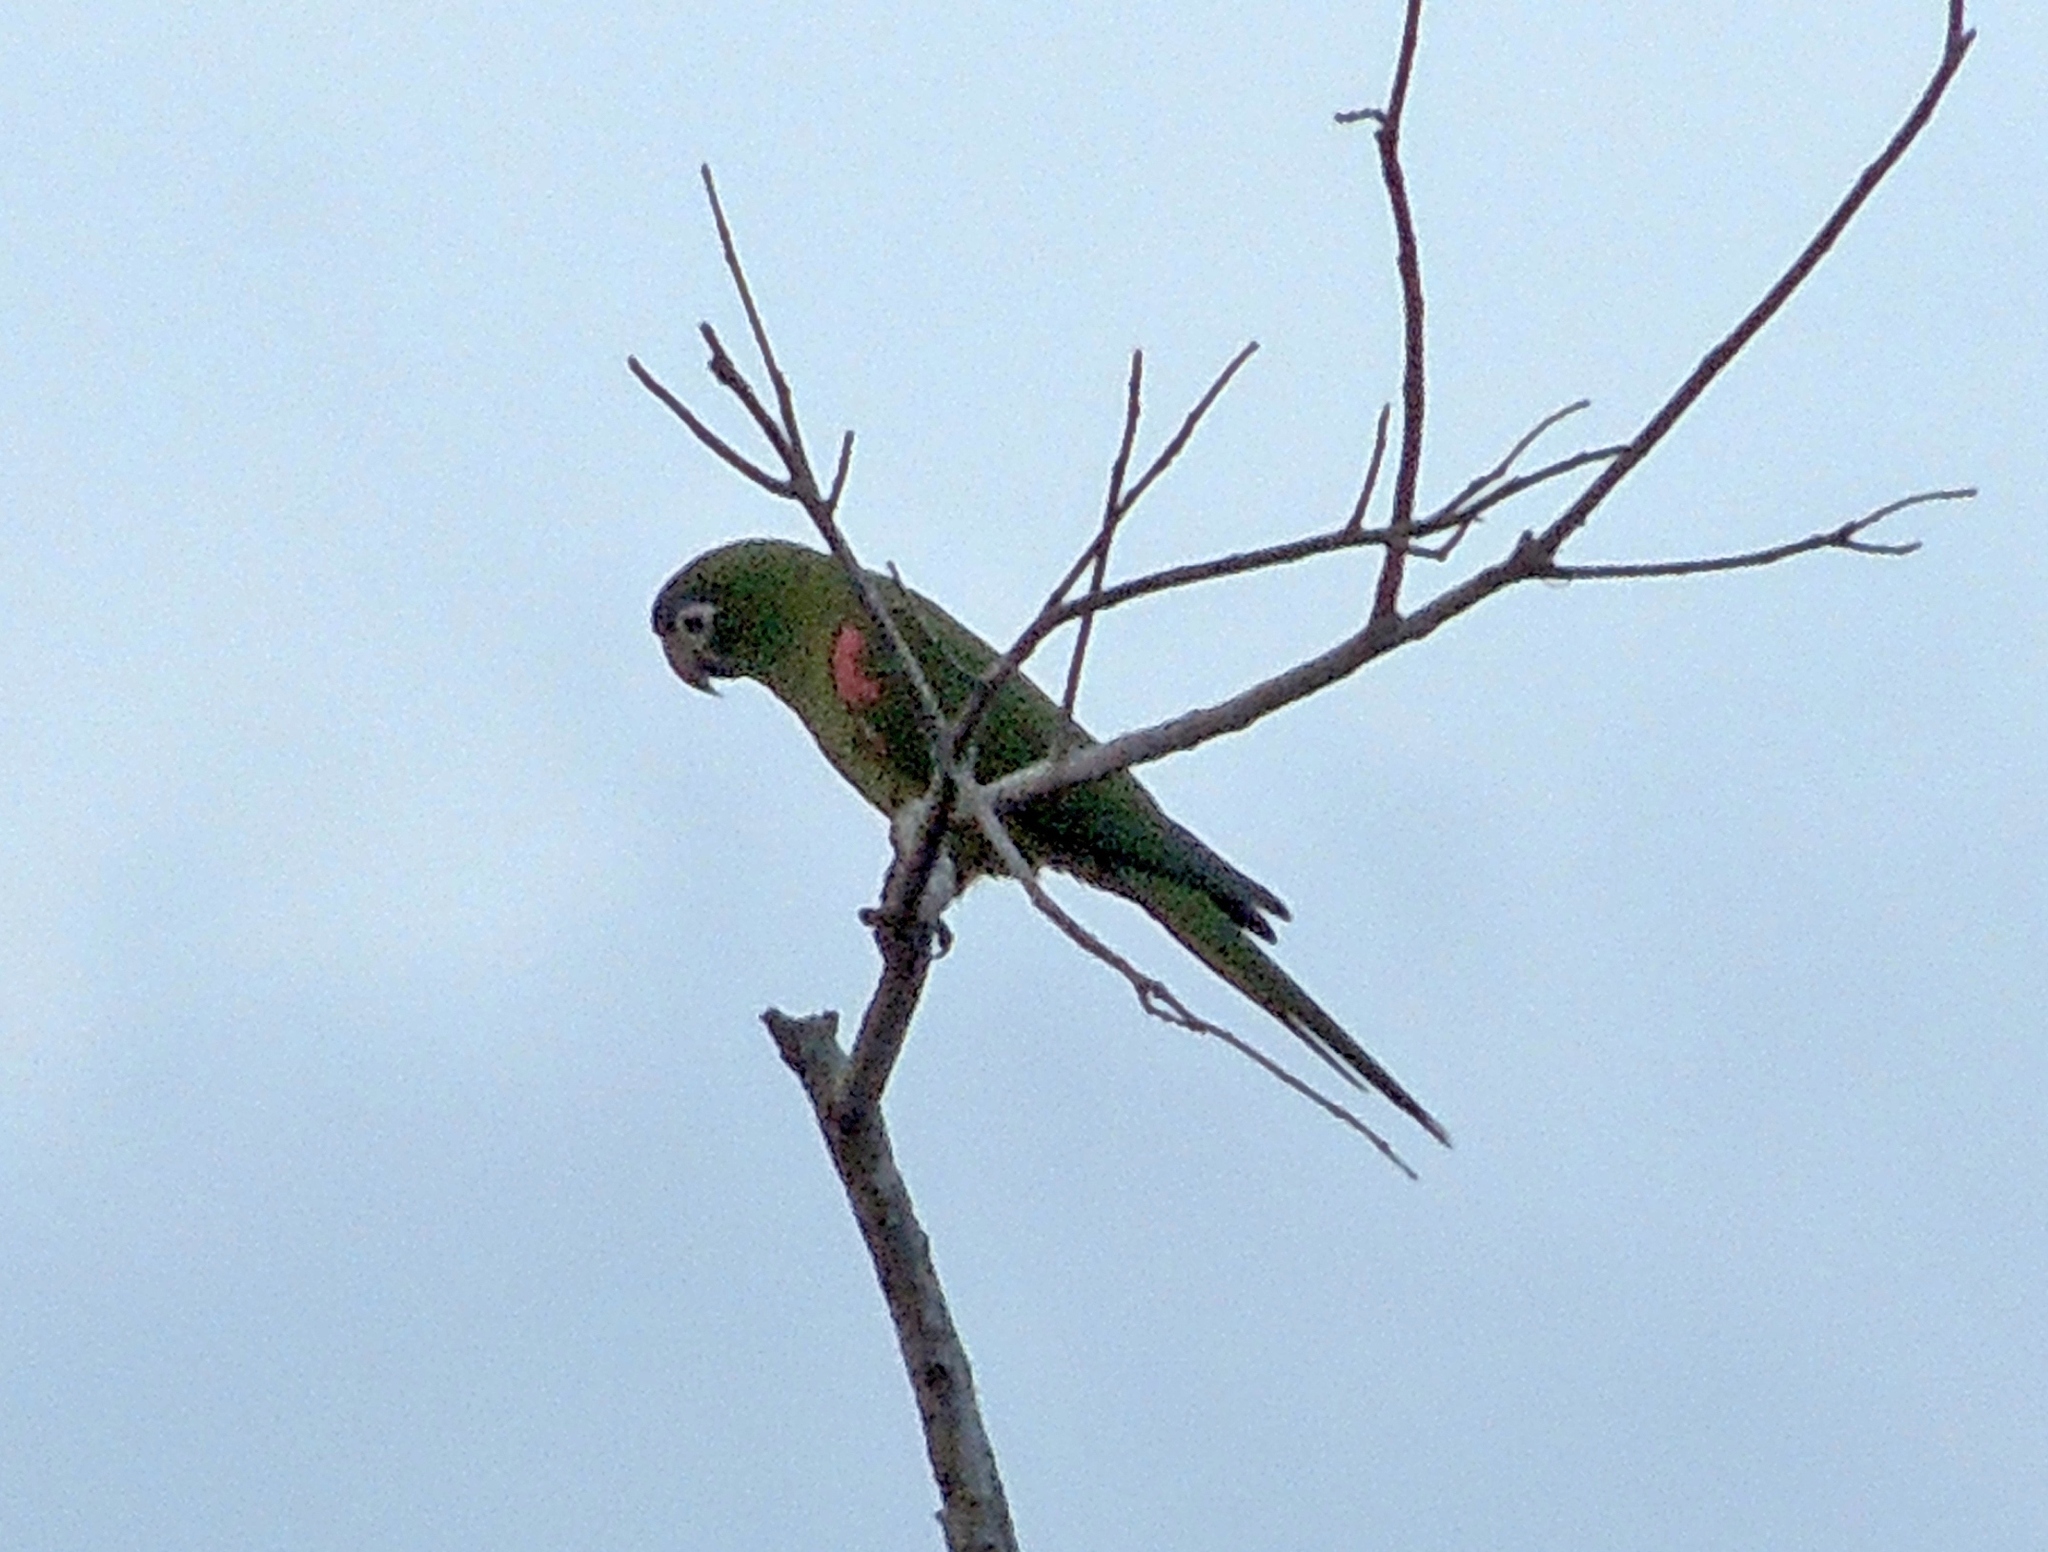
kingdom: Animalia
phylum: Chordata
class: Aves
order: Psittaciformes
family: Psittacidae
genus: Diopsittaca
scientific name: Diopsittaca nobilis
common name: Red-shouldered macaw
